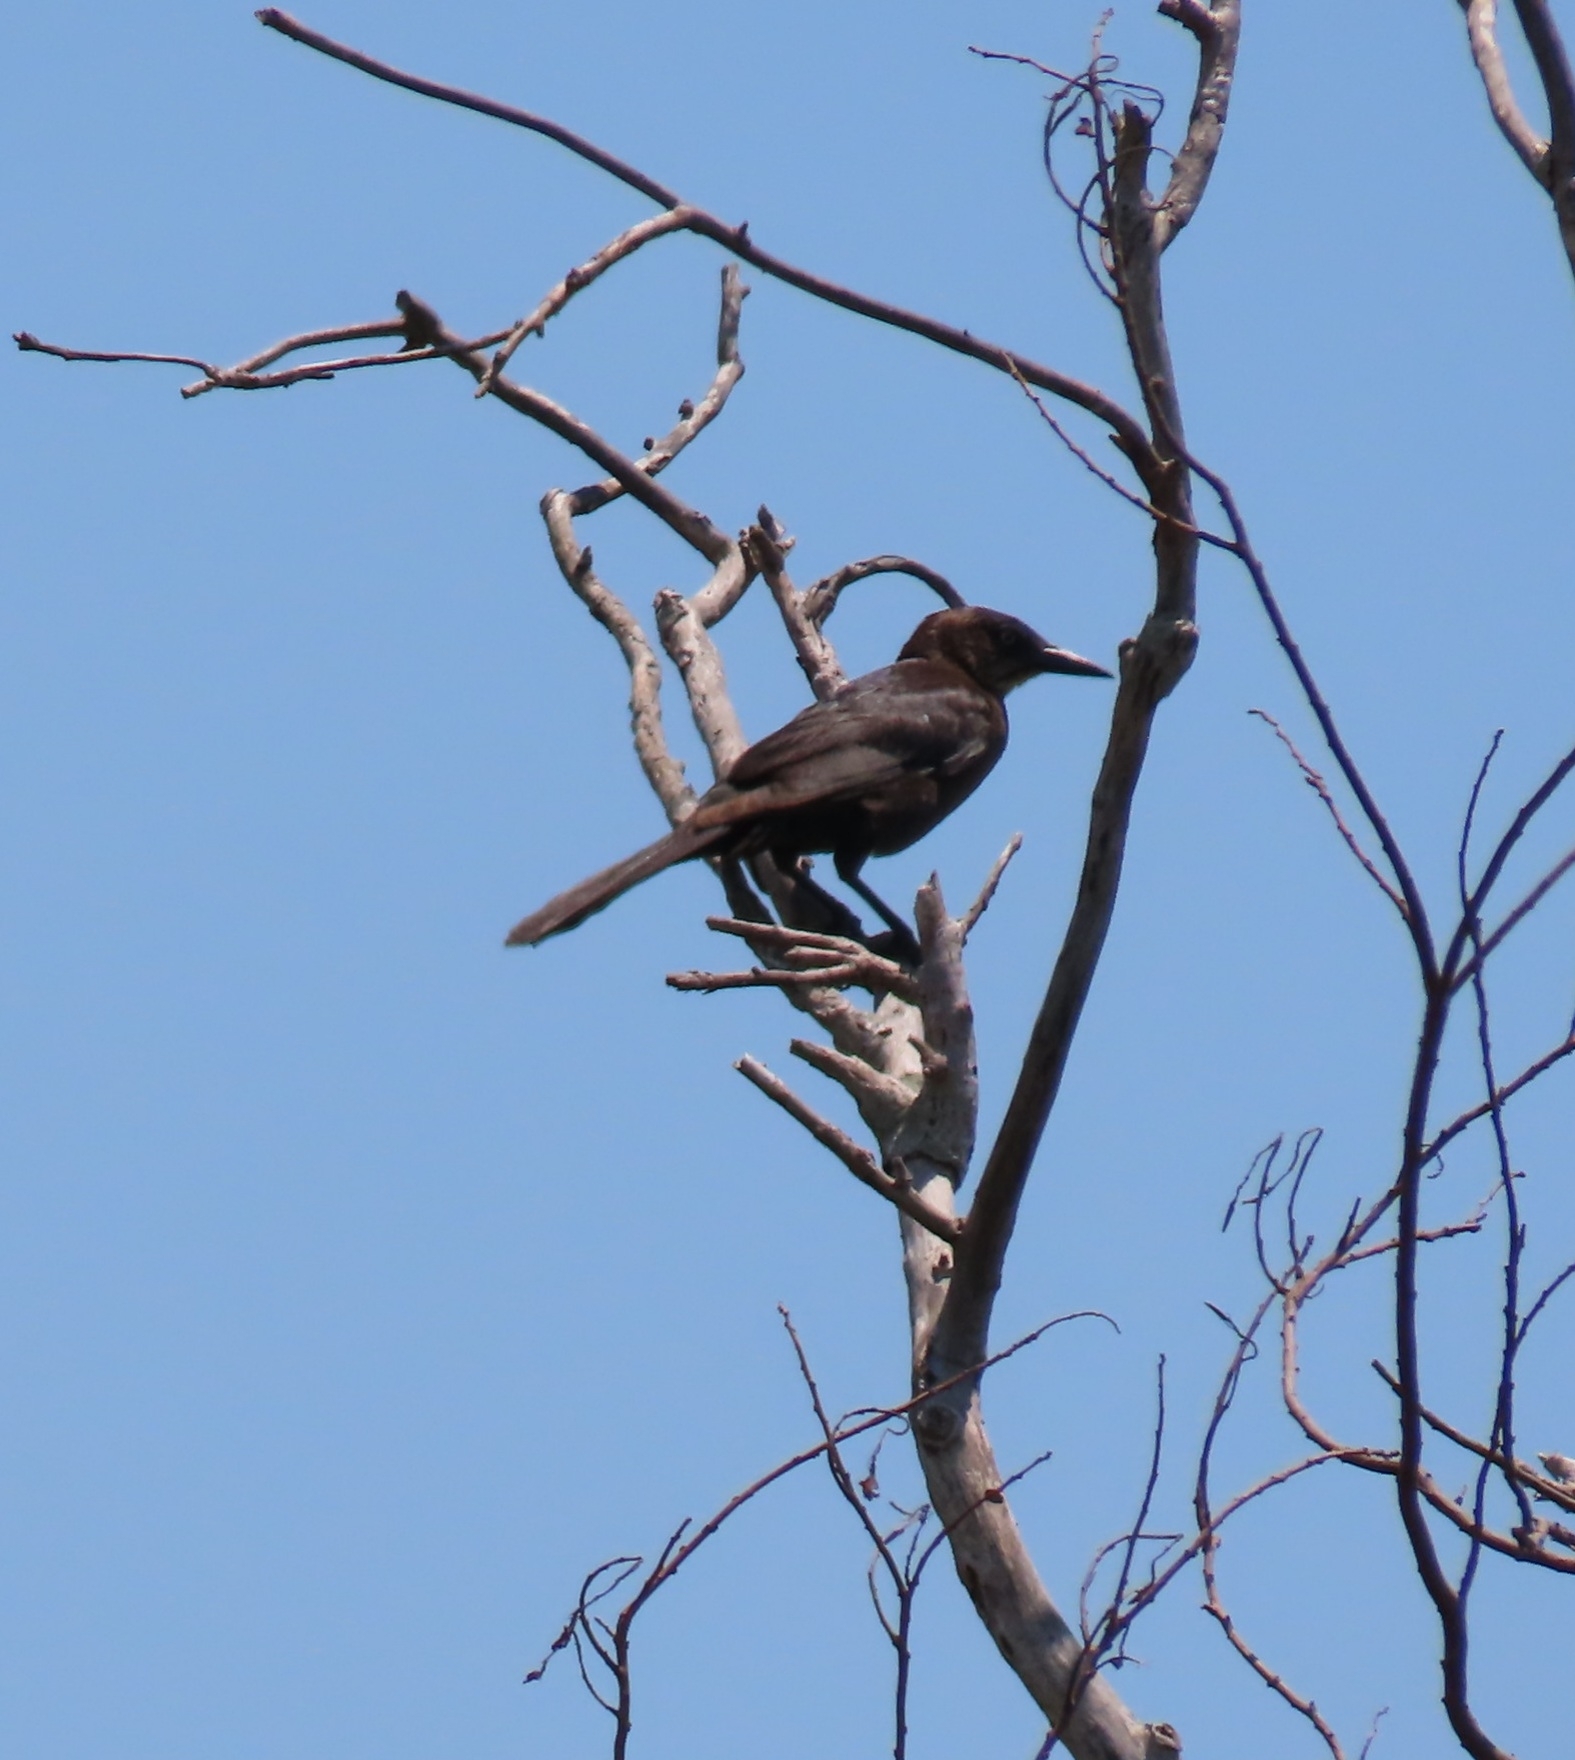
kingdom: Animalia
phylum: Chordata
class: Aves
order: Passeriformes
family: Icteridae
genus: Quiscalus
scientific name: Quiscalus mexicanus
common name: Great-tailed grackle
